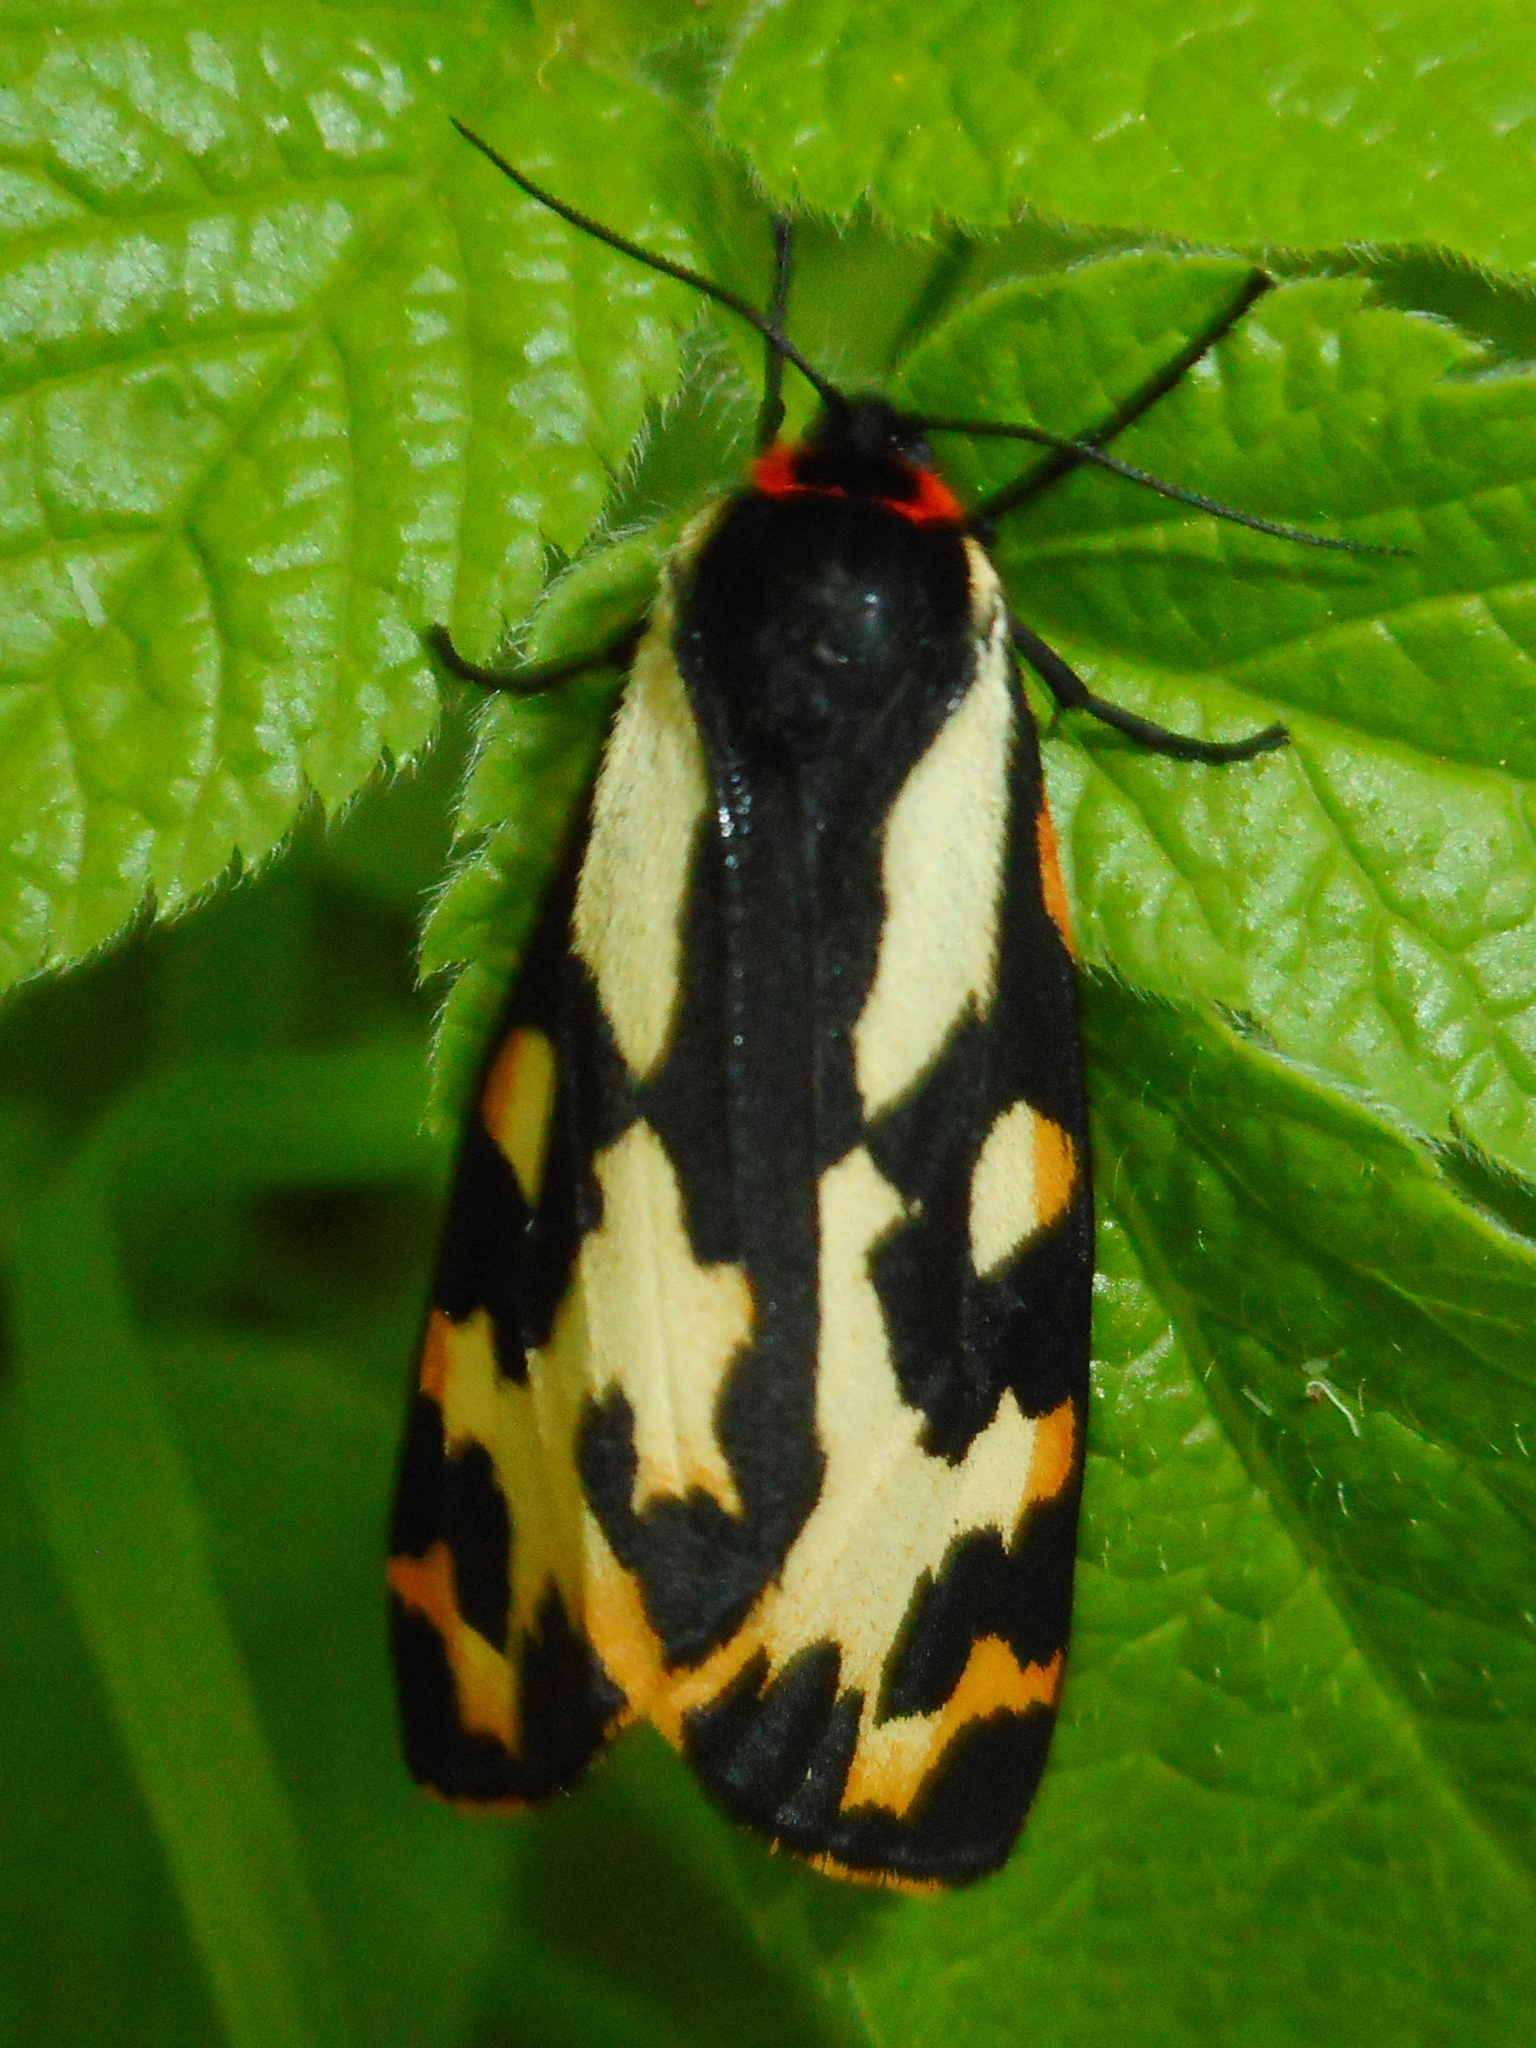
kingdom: Animalia
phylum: Arthropoda
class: Insecta
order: Lepidoptera
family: Erebidae
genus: Parasemia
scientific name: Parasemia plantaginis
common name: Wood tiger
